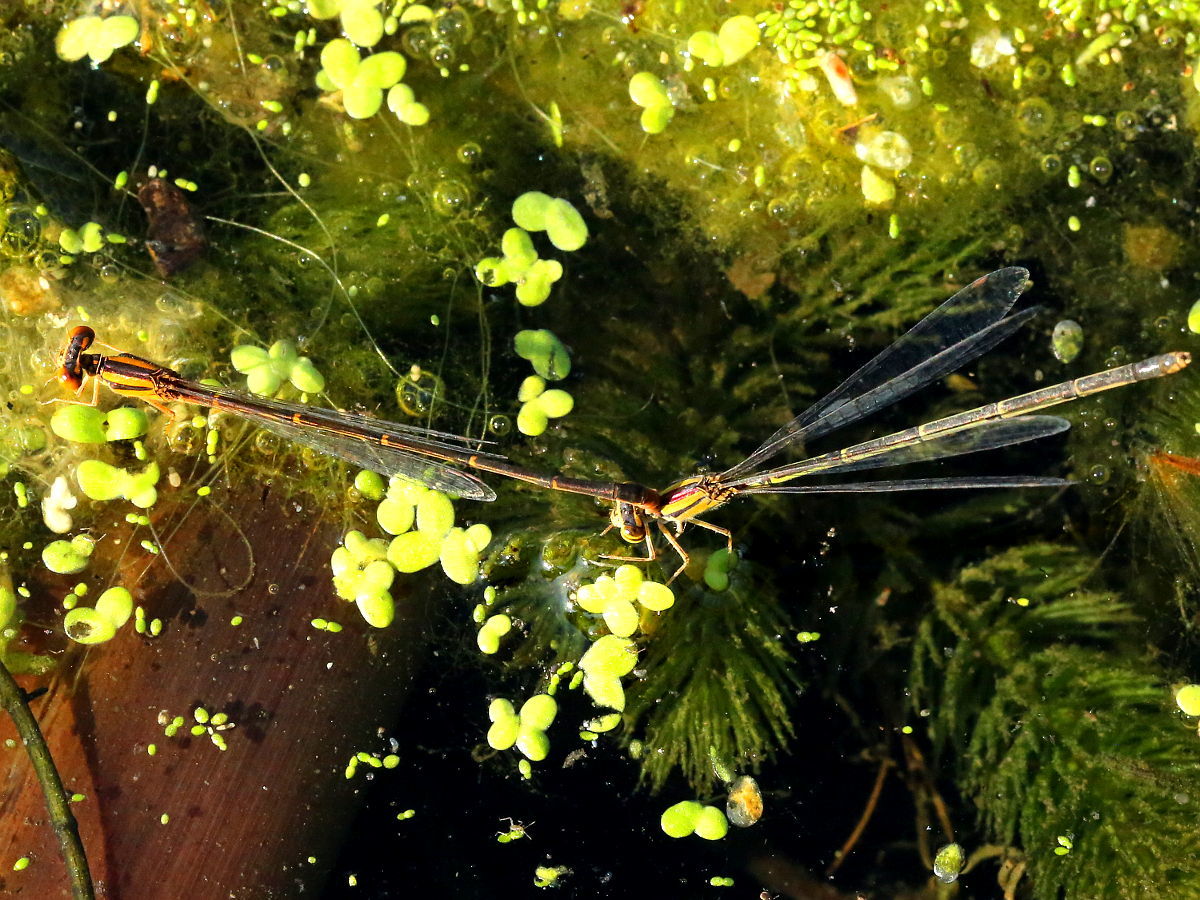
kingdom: Animalia
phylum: Arthropoda
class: Insecta
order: Odonata
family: Coenagrionidae
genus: Enallagma
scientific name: Enallagma signatum
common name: Orange bluet
